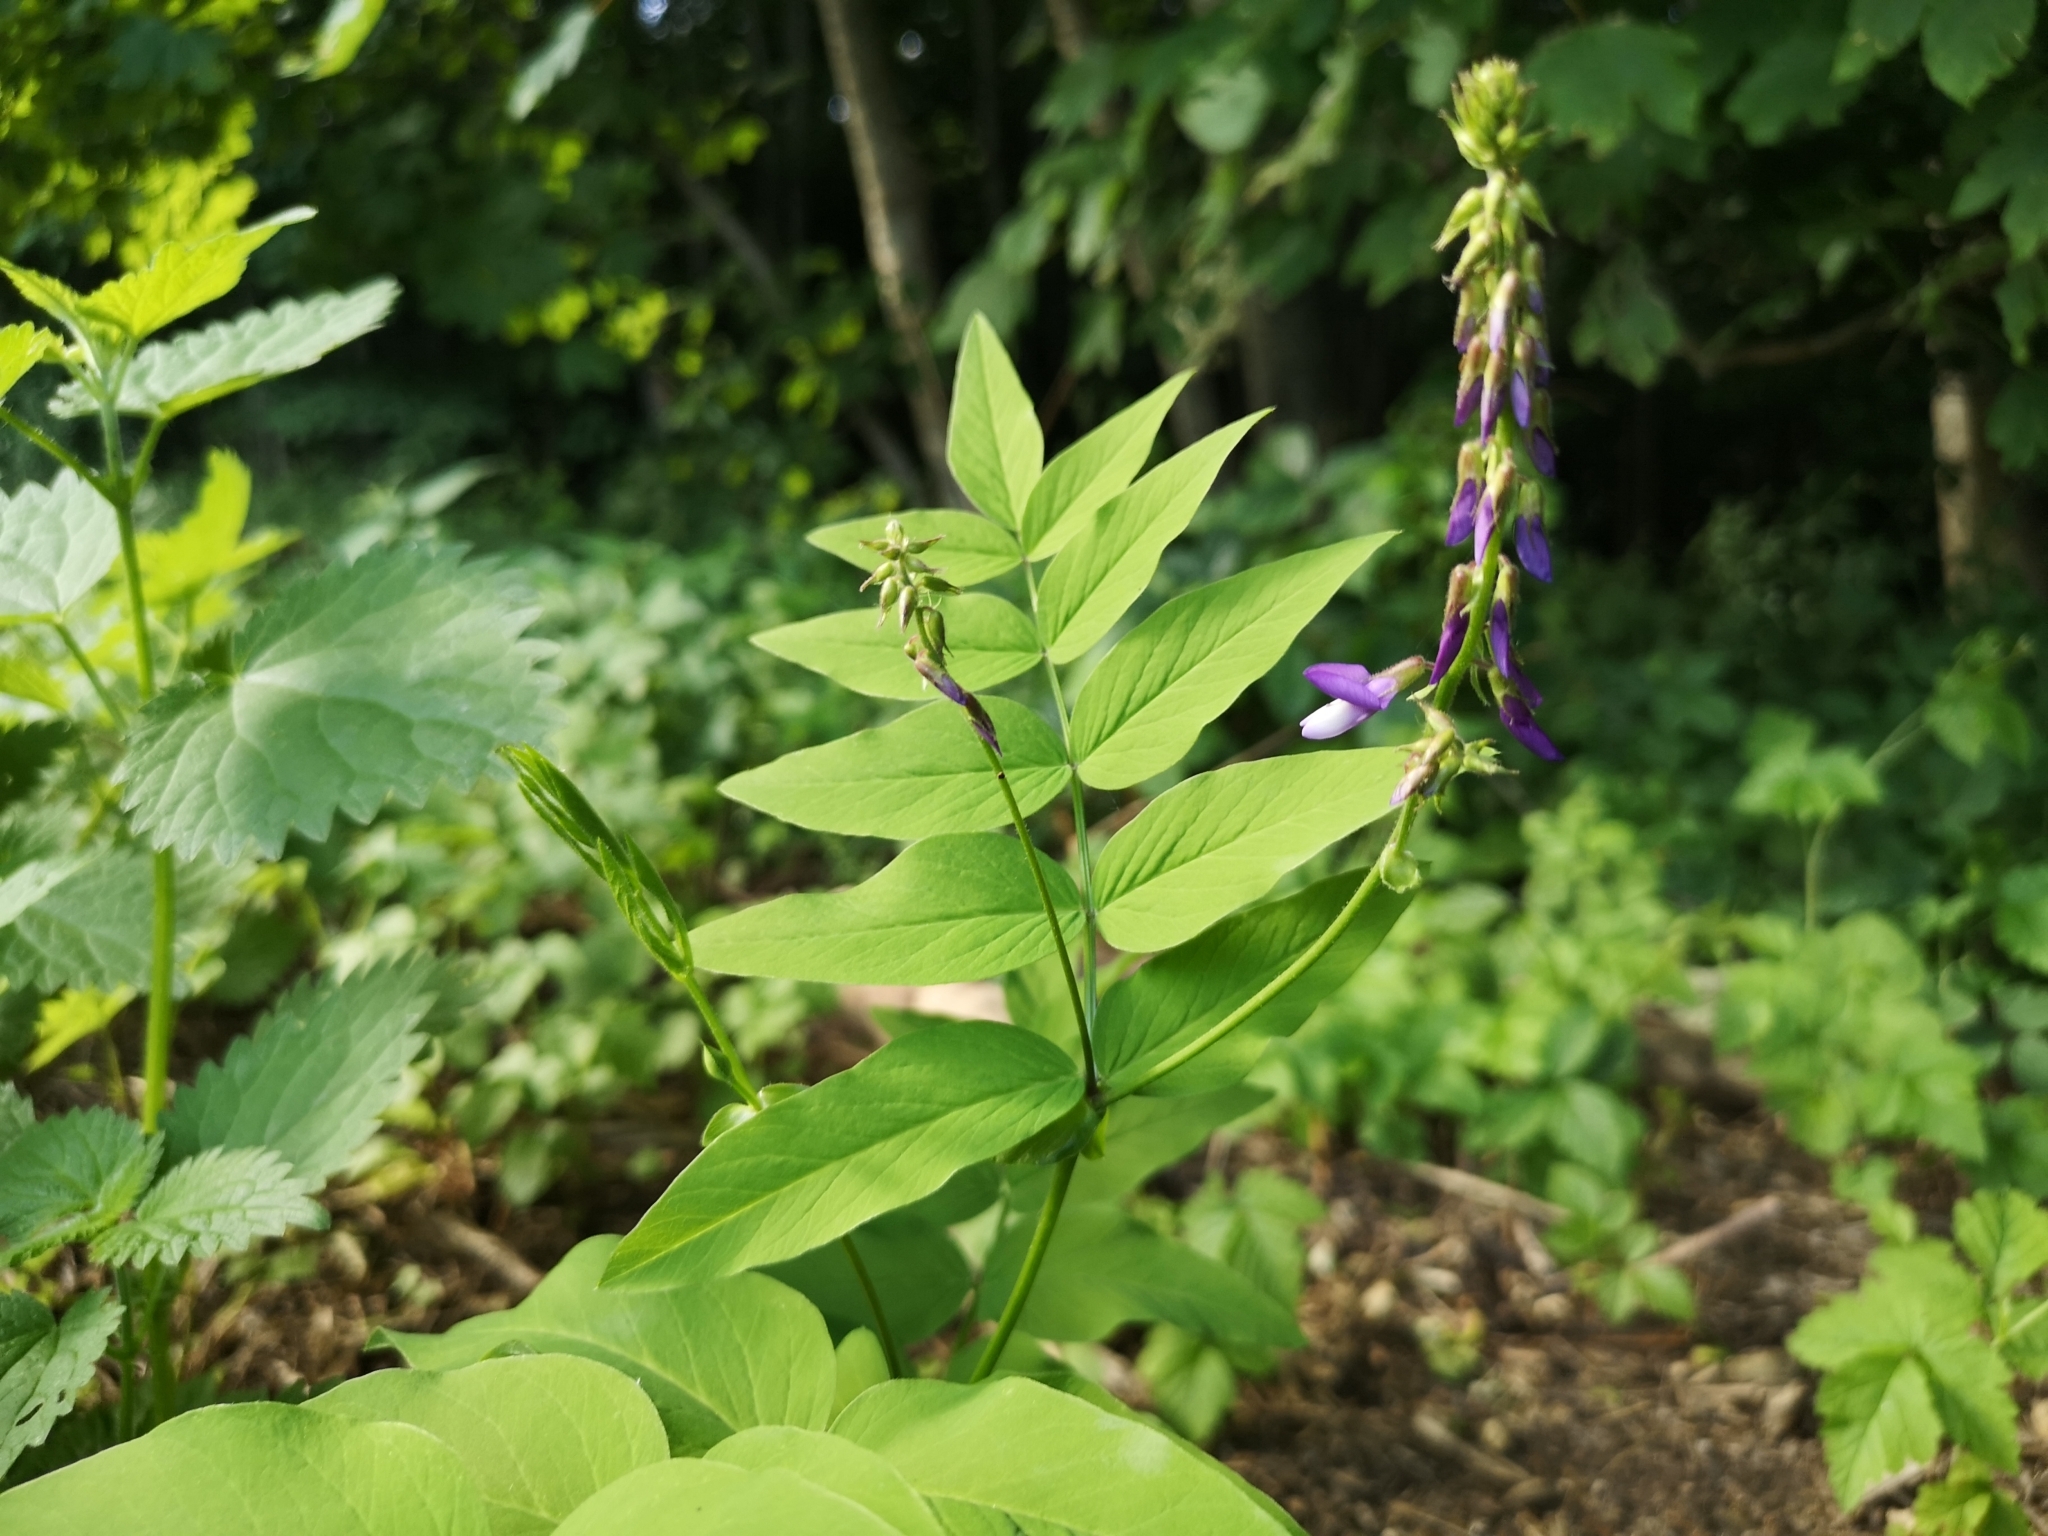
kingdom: Plantae
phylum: Tracheophyta
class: Magnoliopsida
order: Fabales
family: Fabaceae
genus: Galega
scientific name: Galega orientalis
